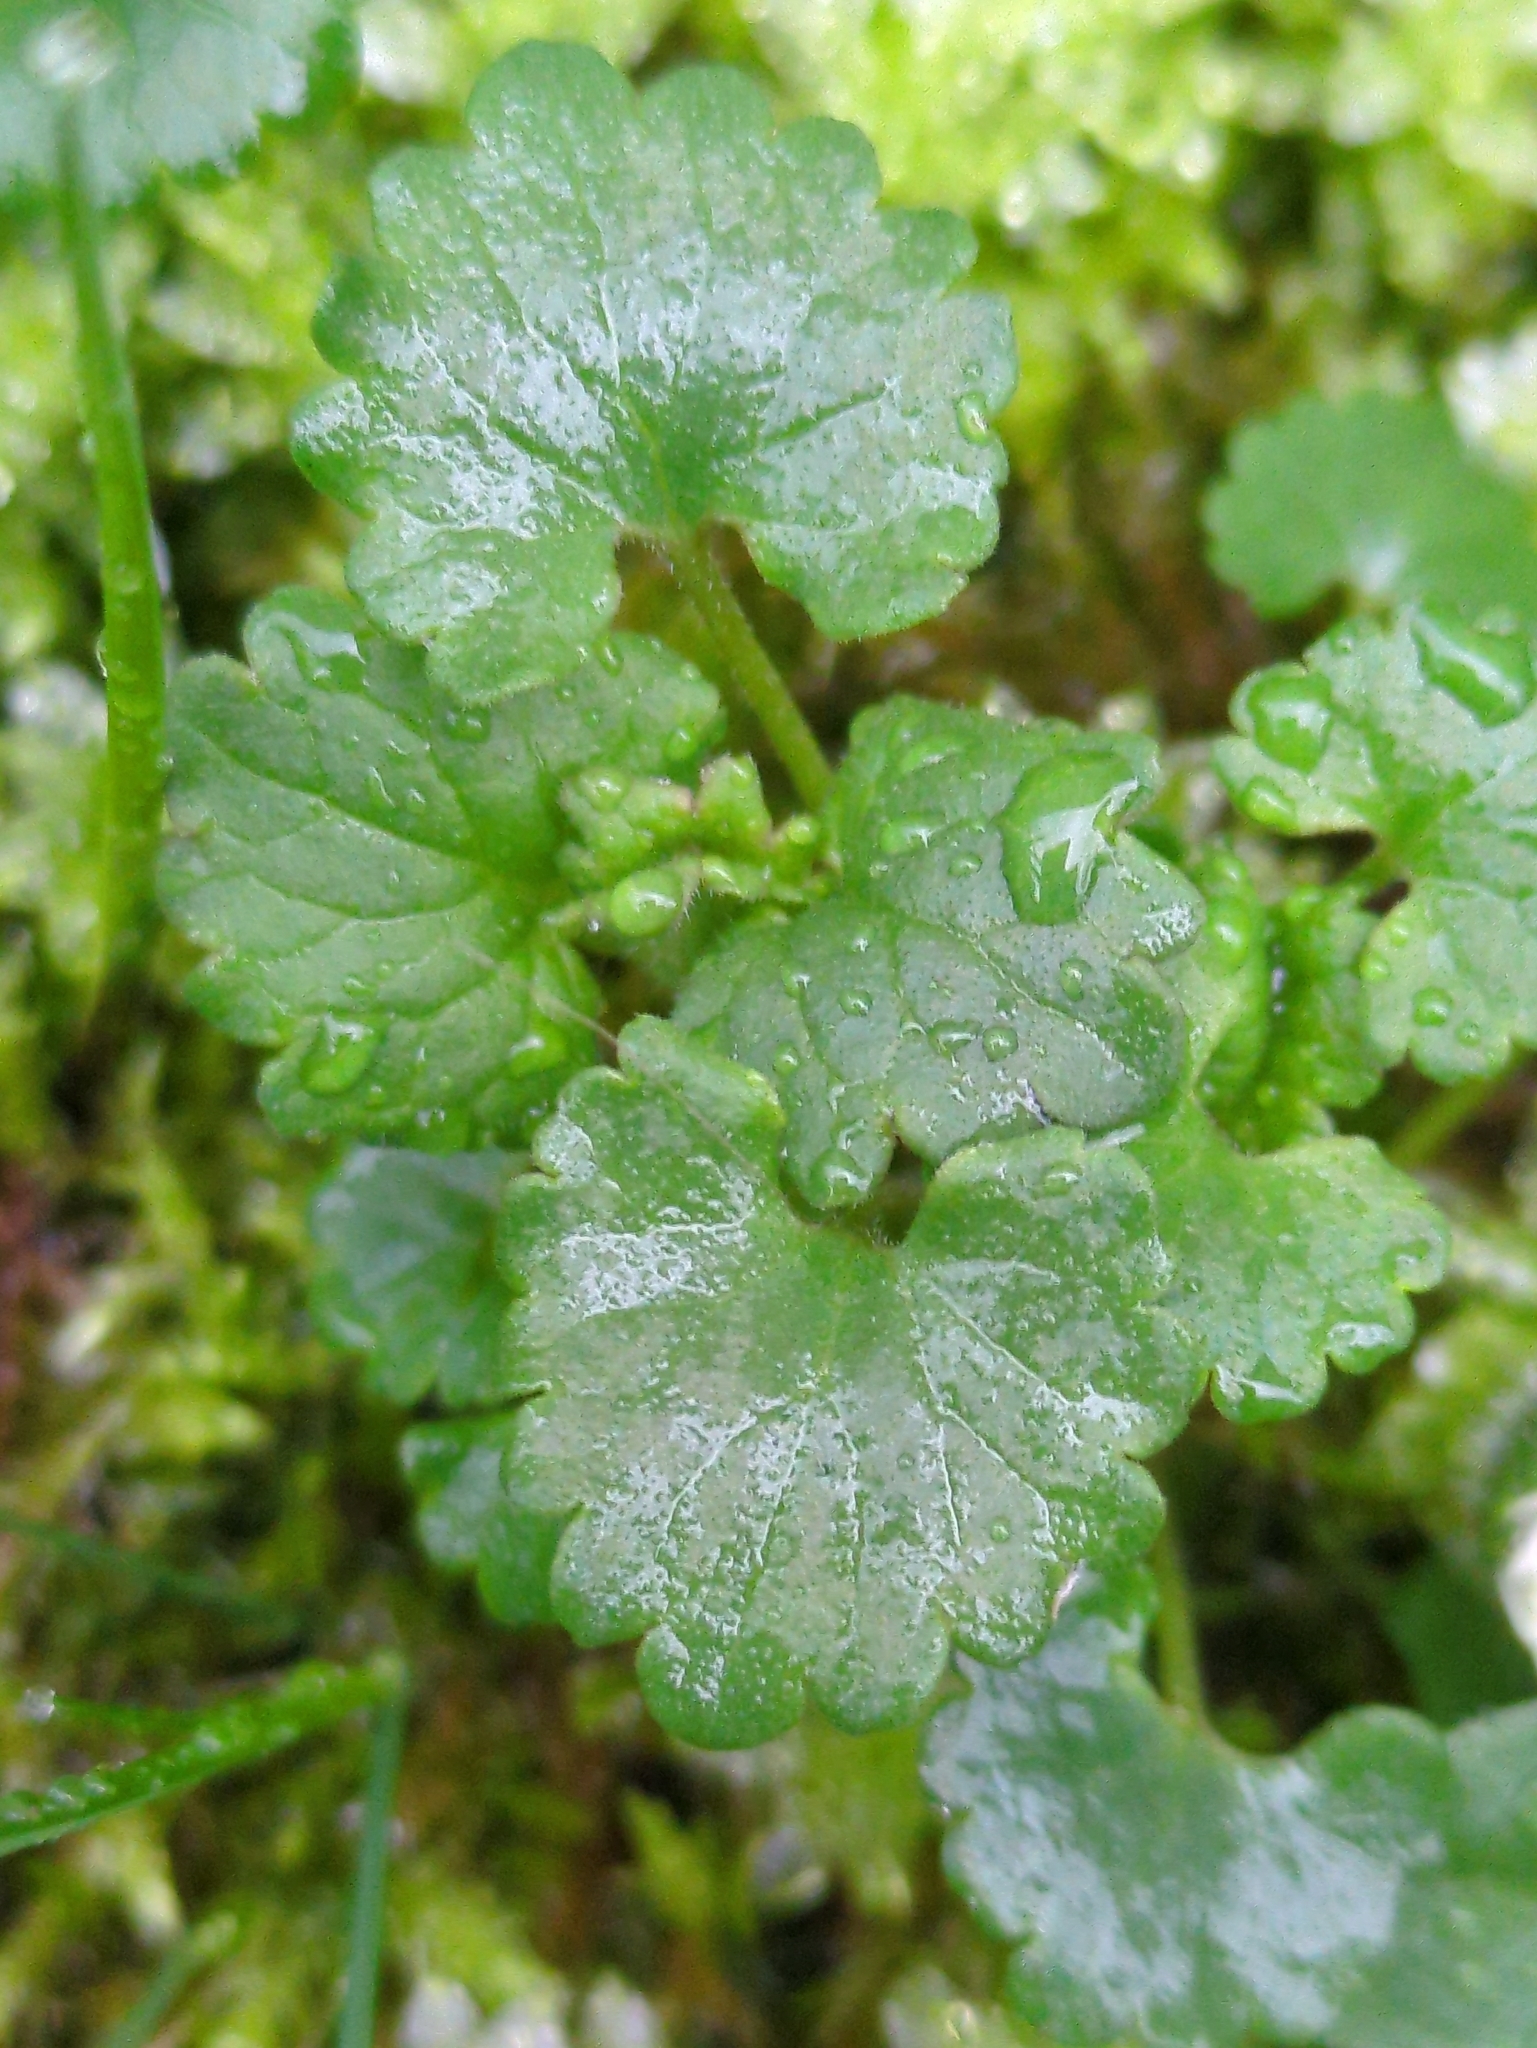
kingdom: Plantae
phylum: Tracheophyta
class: Magnoliopsida
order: Lamiales
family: Lamiaceae
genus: Glechoma
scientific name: Glechoma hederacea
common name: Ground ivy
